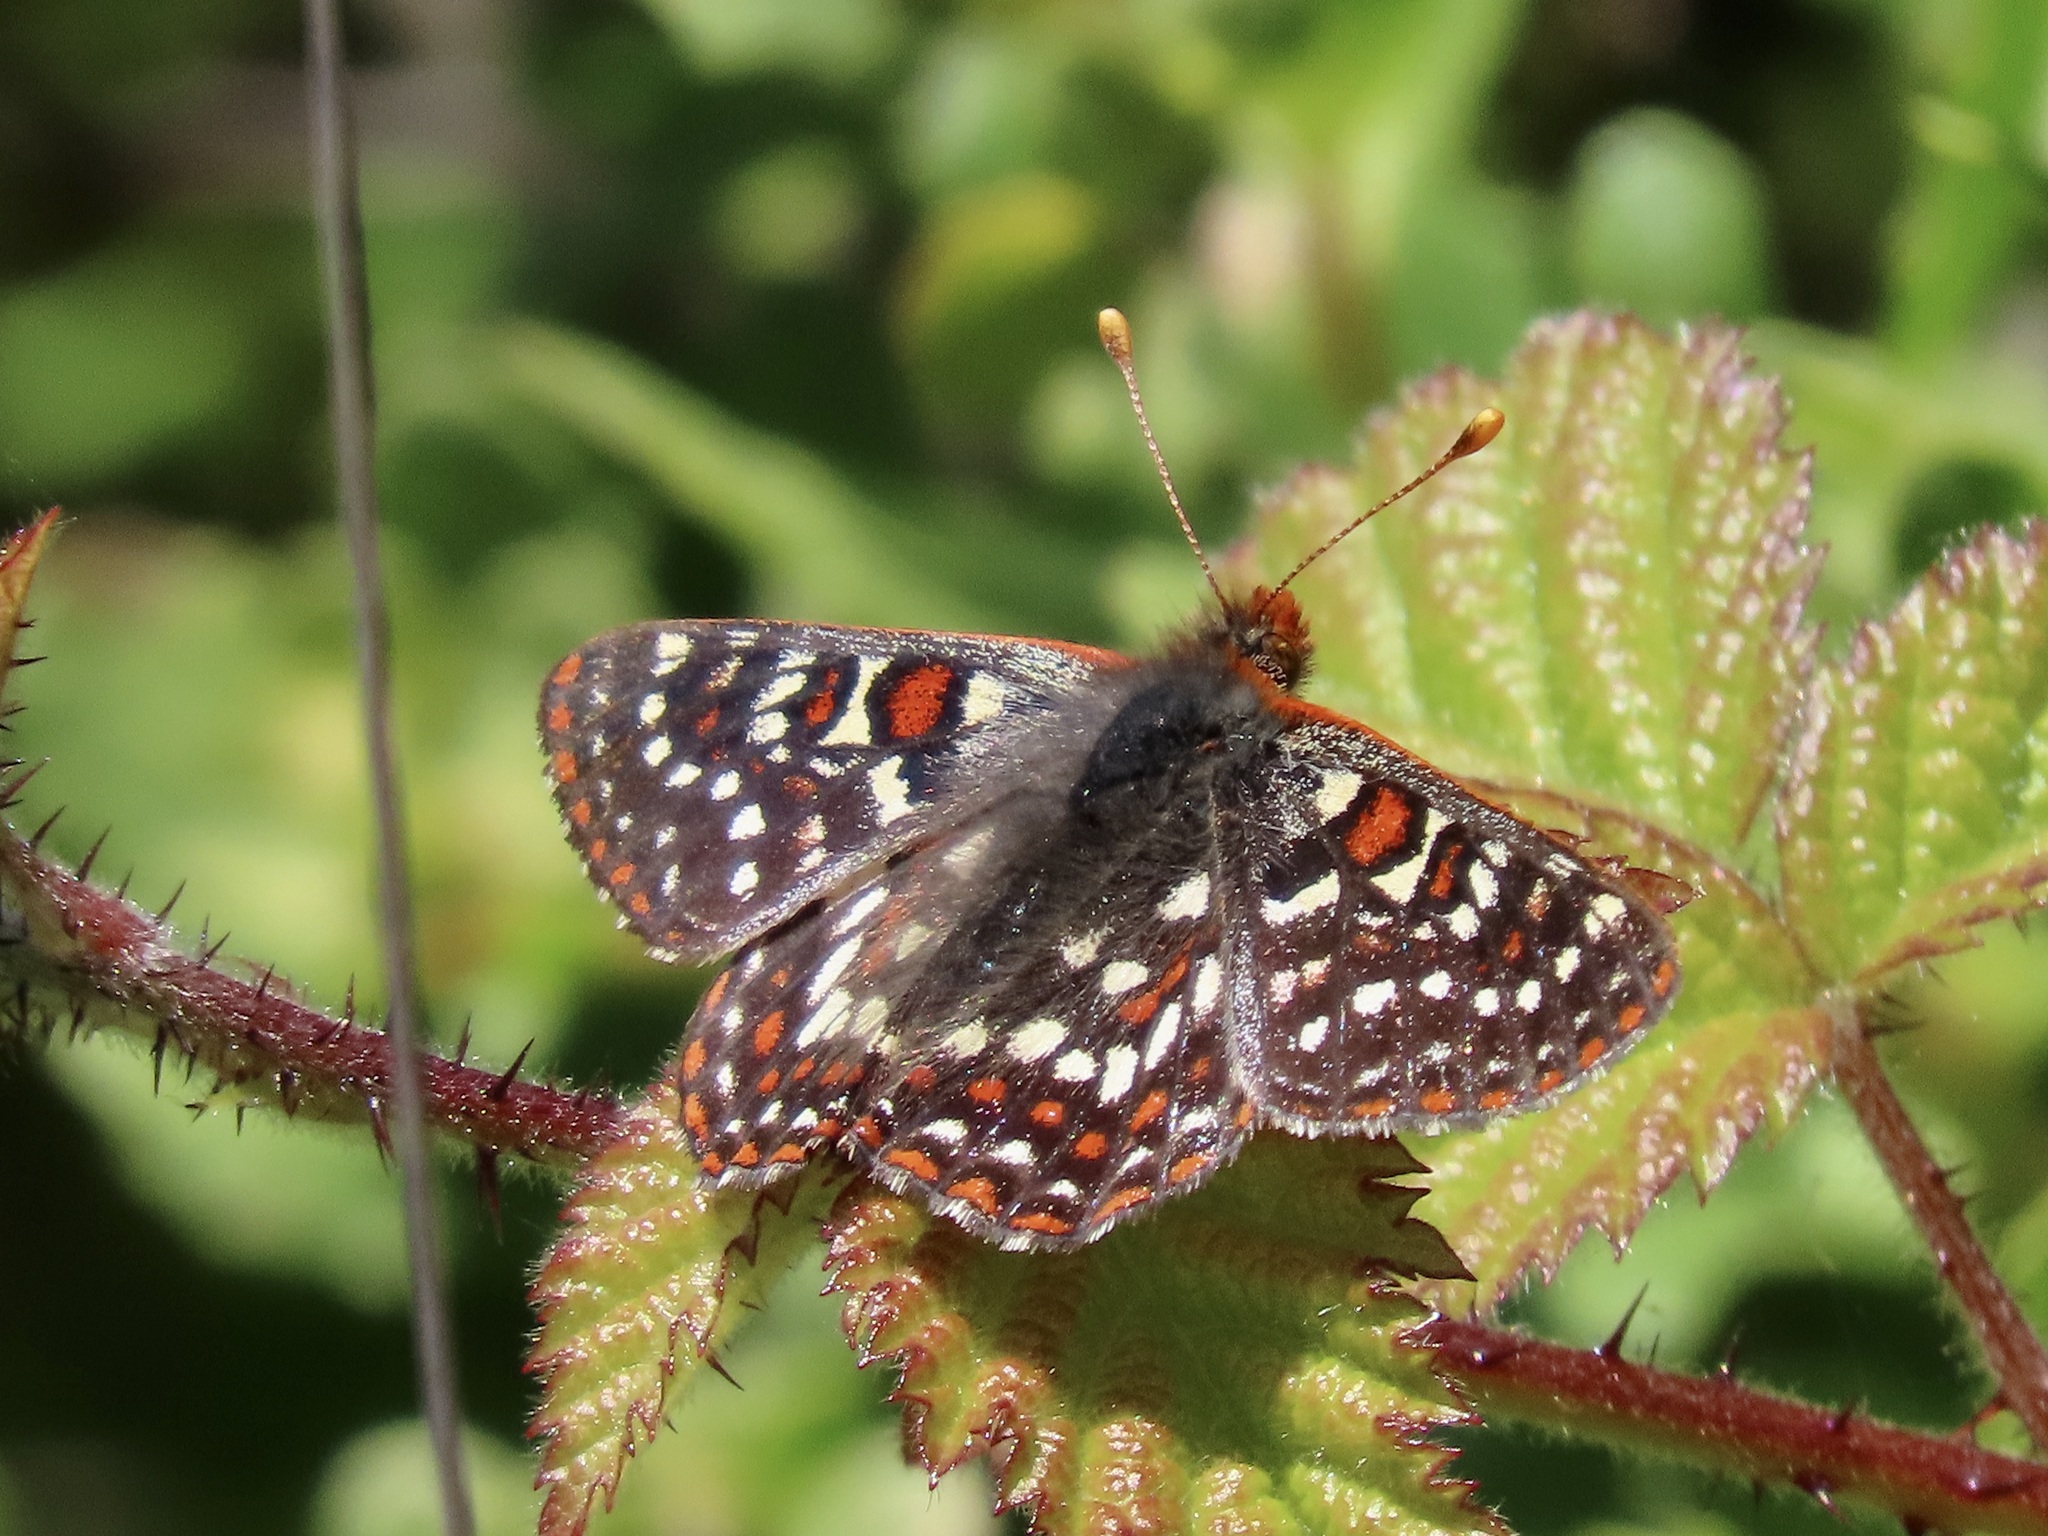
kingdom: Animalia
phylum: Arthropoda
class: Insecta
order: Lepidoptera
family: Nymphalidae
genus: Occidryas
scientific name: Occidryas editha
